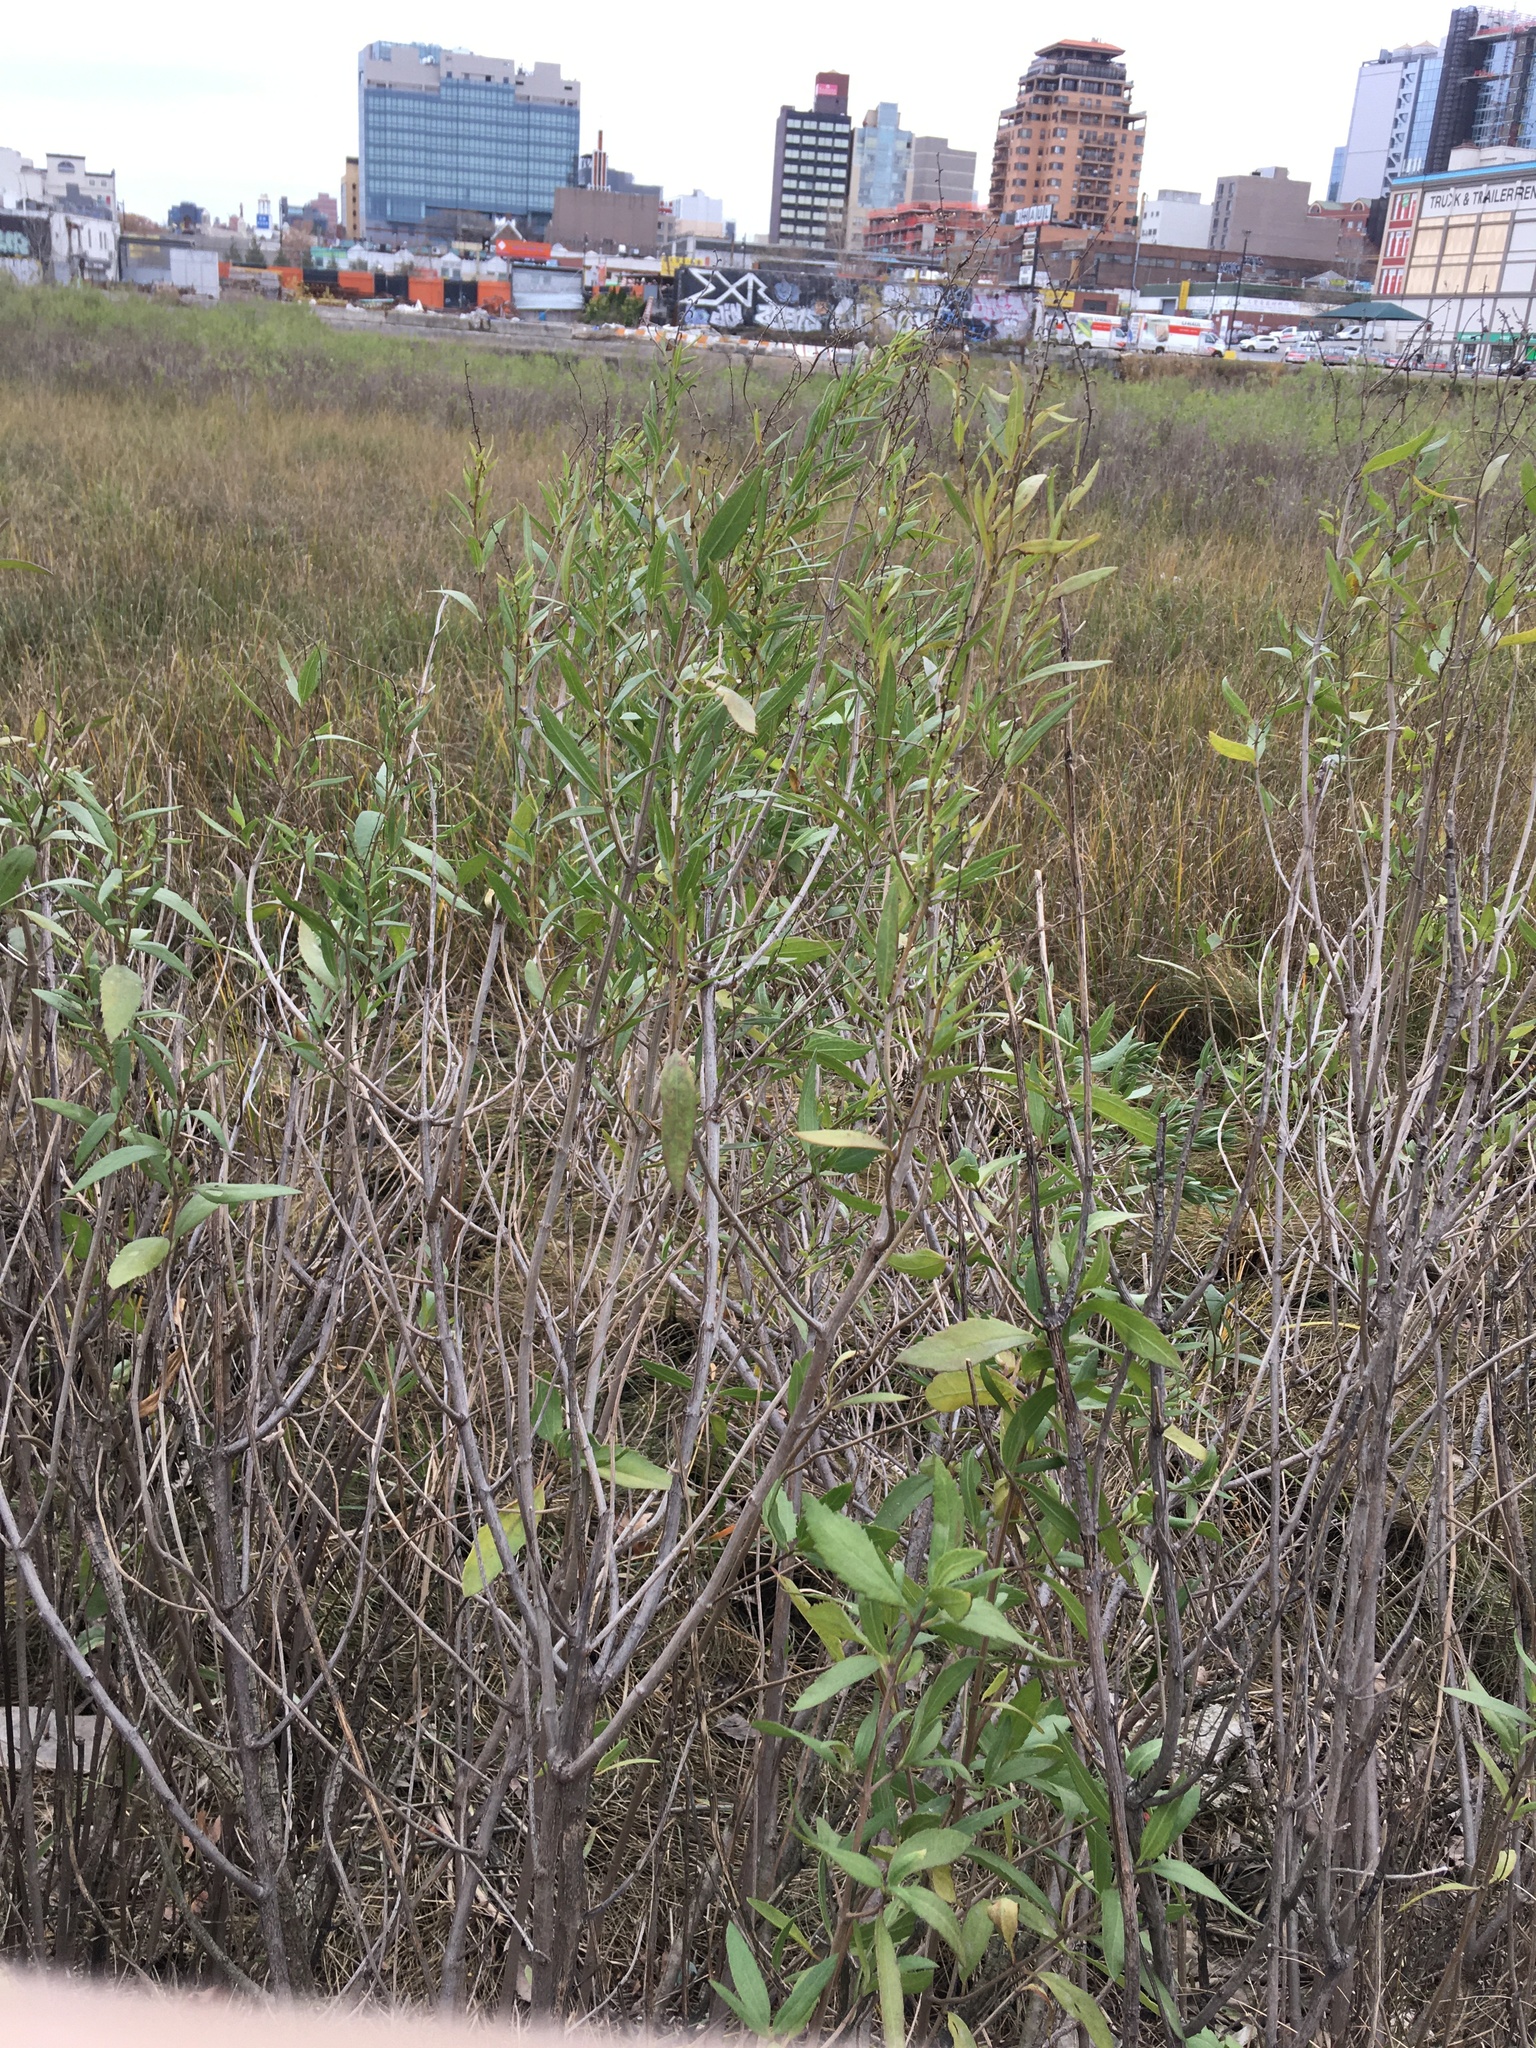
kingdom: Plantae
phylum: Tracheophyta
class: Magnoliopsida
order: Asterales
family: Asteraceae
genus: Iva
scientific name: Iva frutescens
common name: Big-leaved marsh-elder
